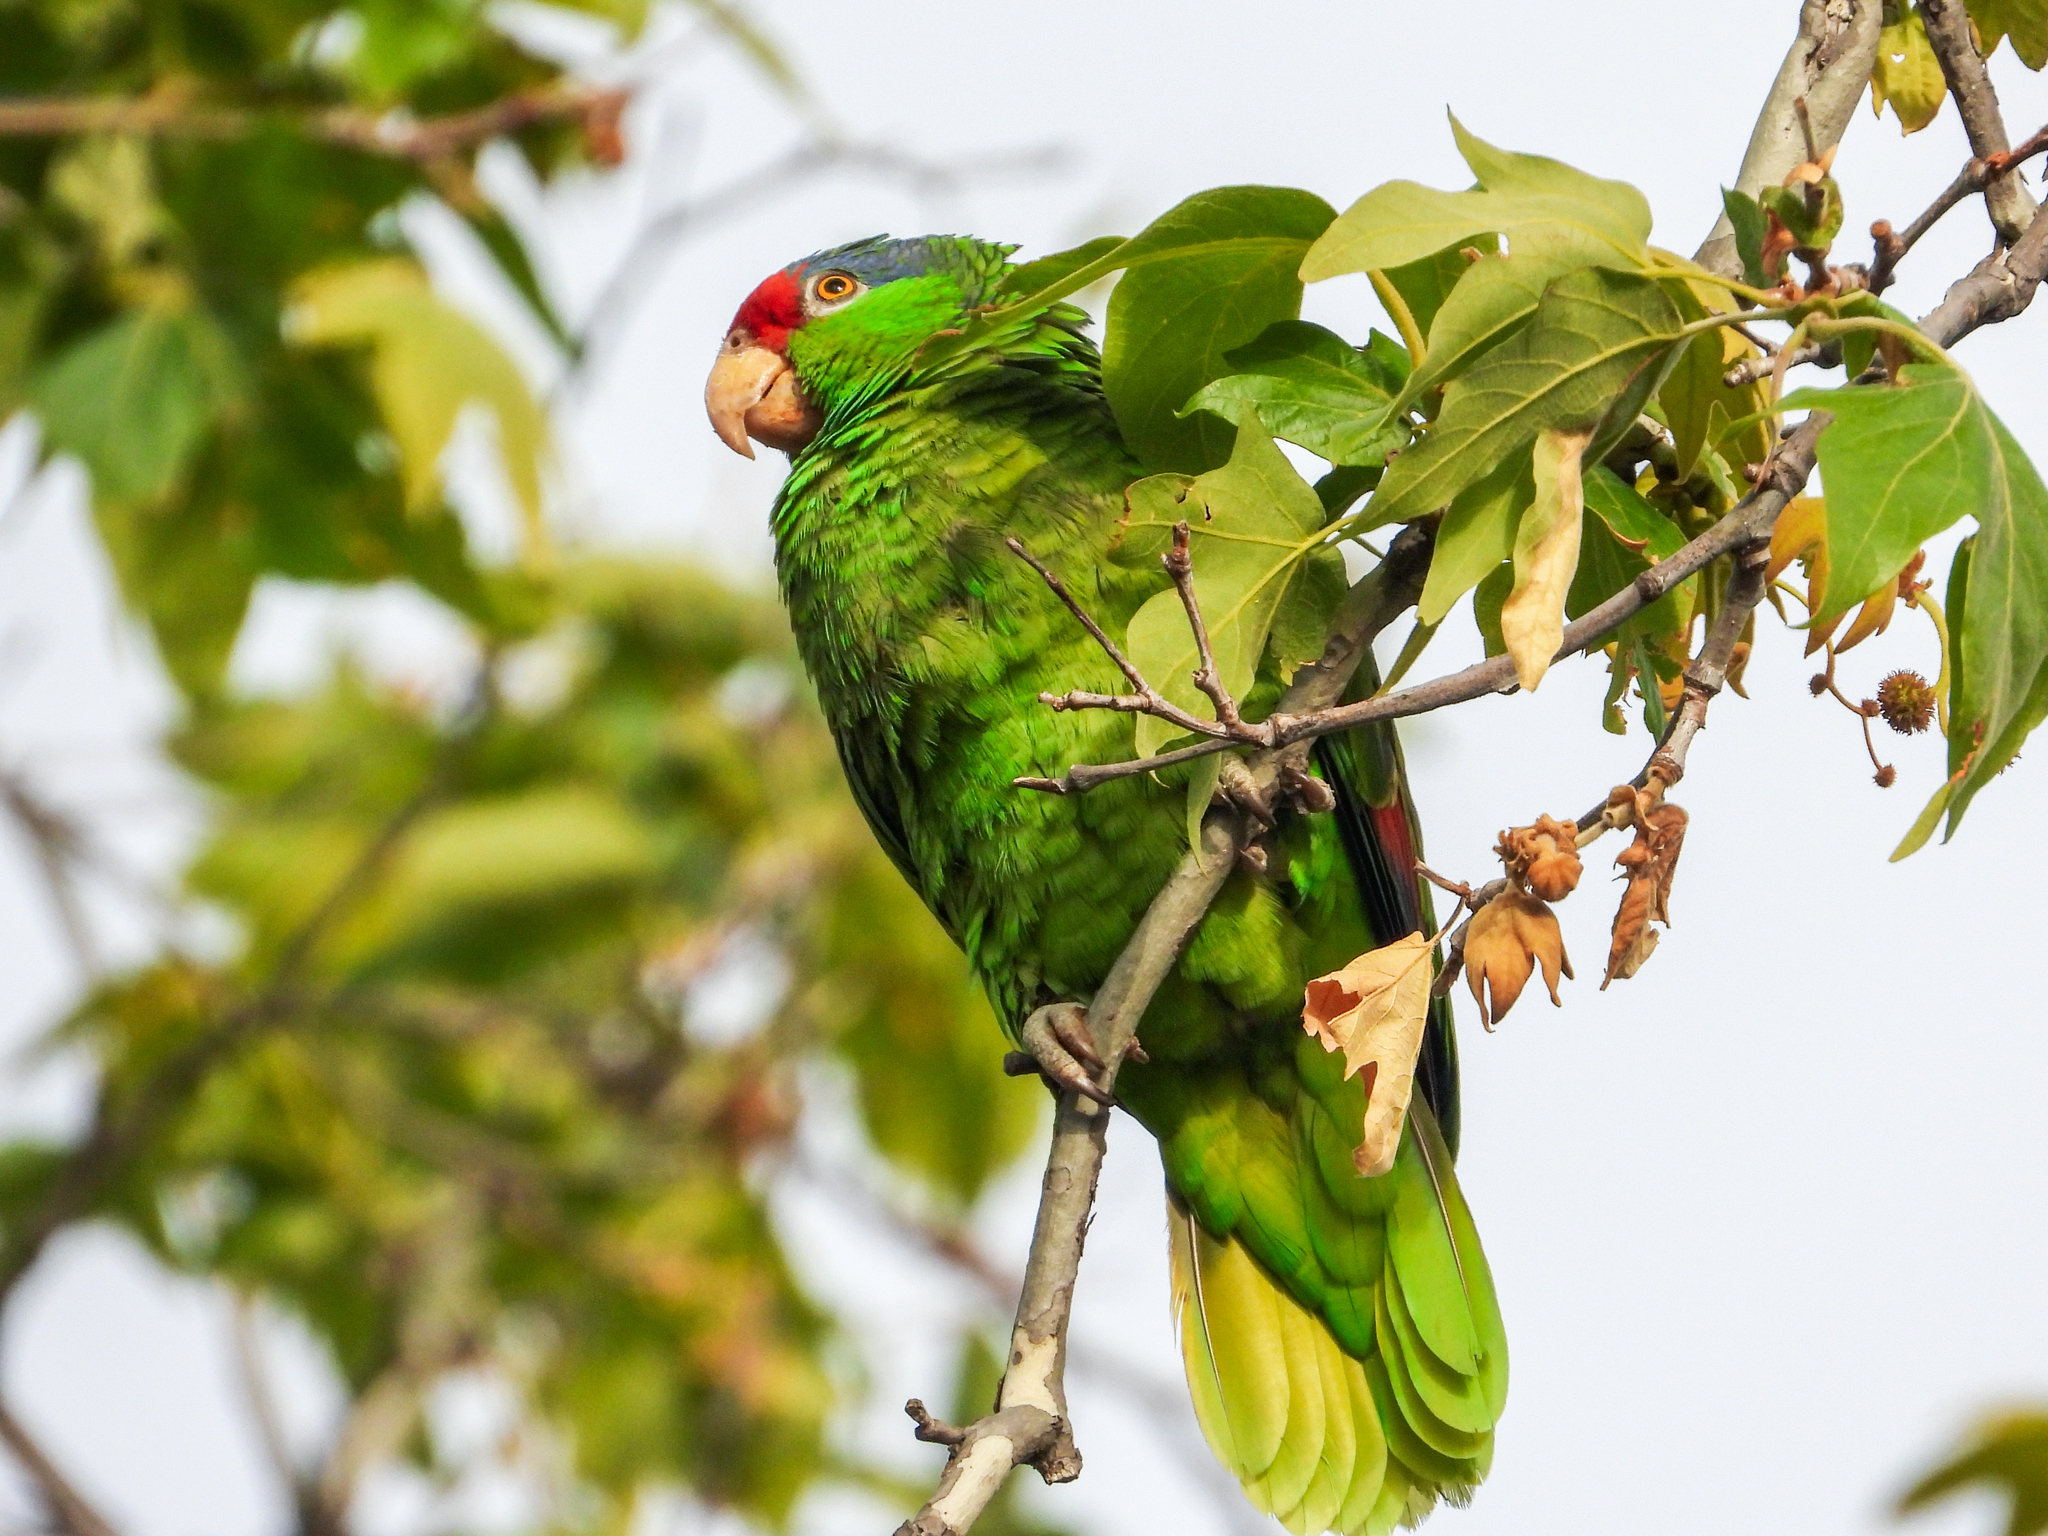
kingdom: Animalia
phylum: Chordata
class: Aves
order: Psittaciformes
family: Psittacidae
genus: Amazona
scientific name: Amazona viridigenalis
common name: Red-crowned amazon
